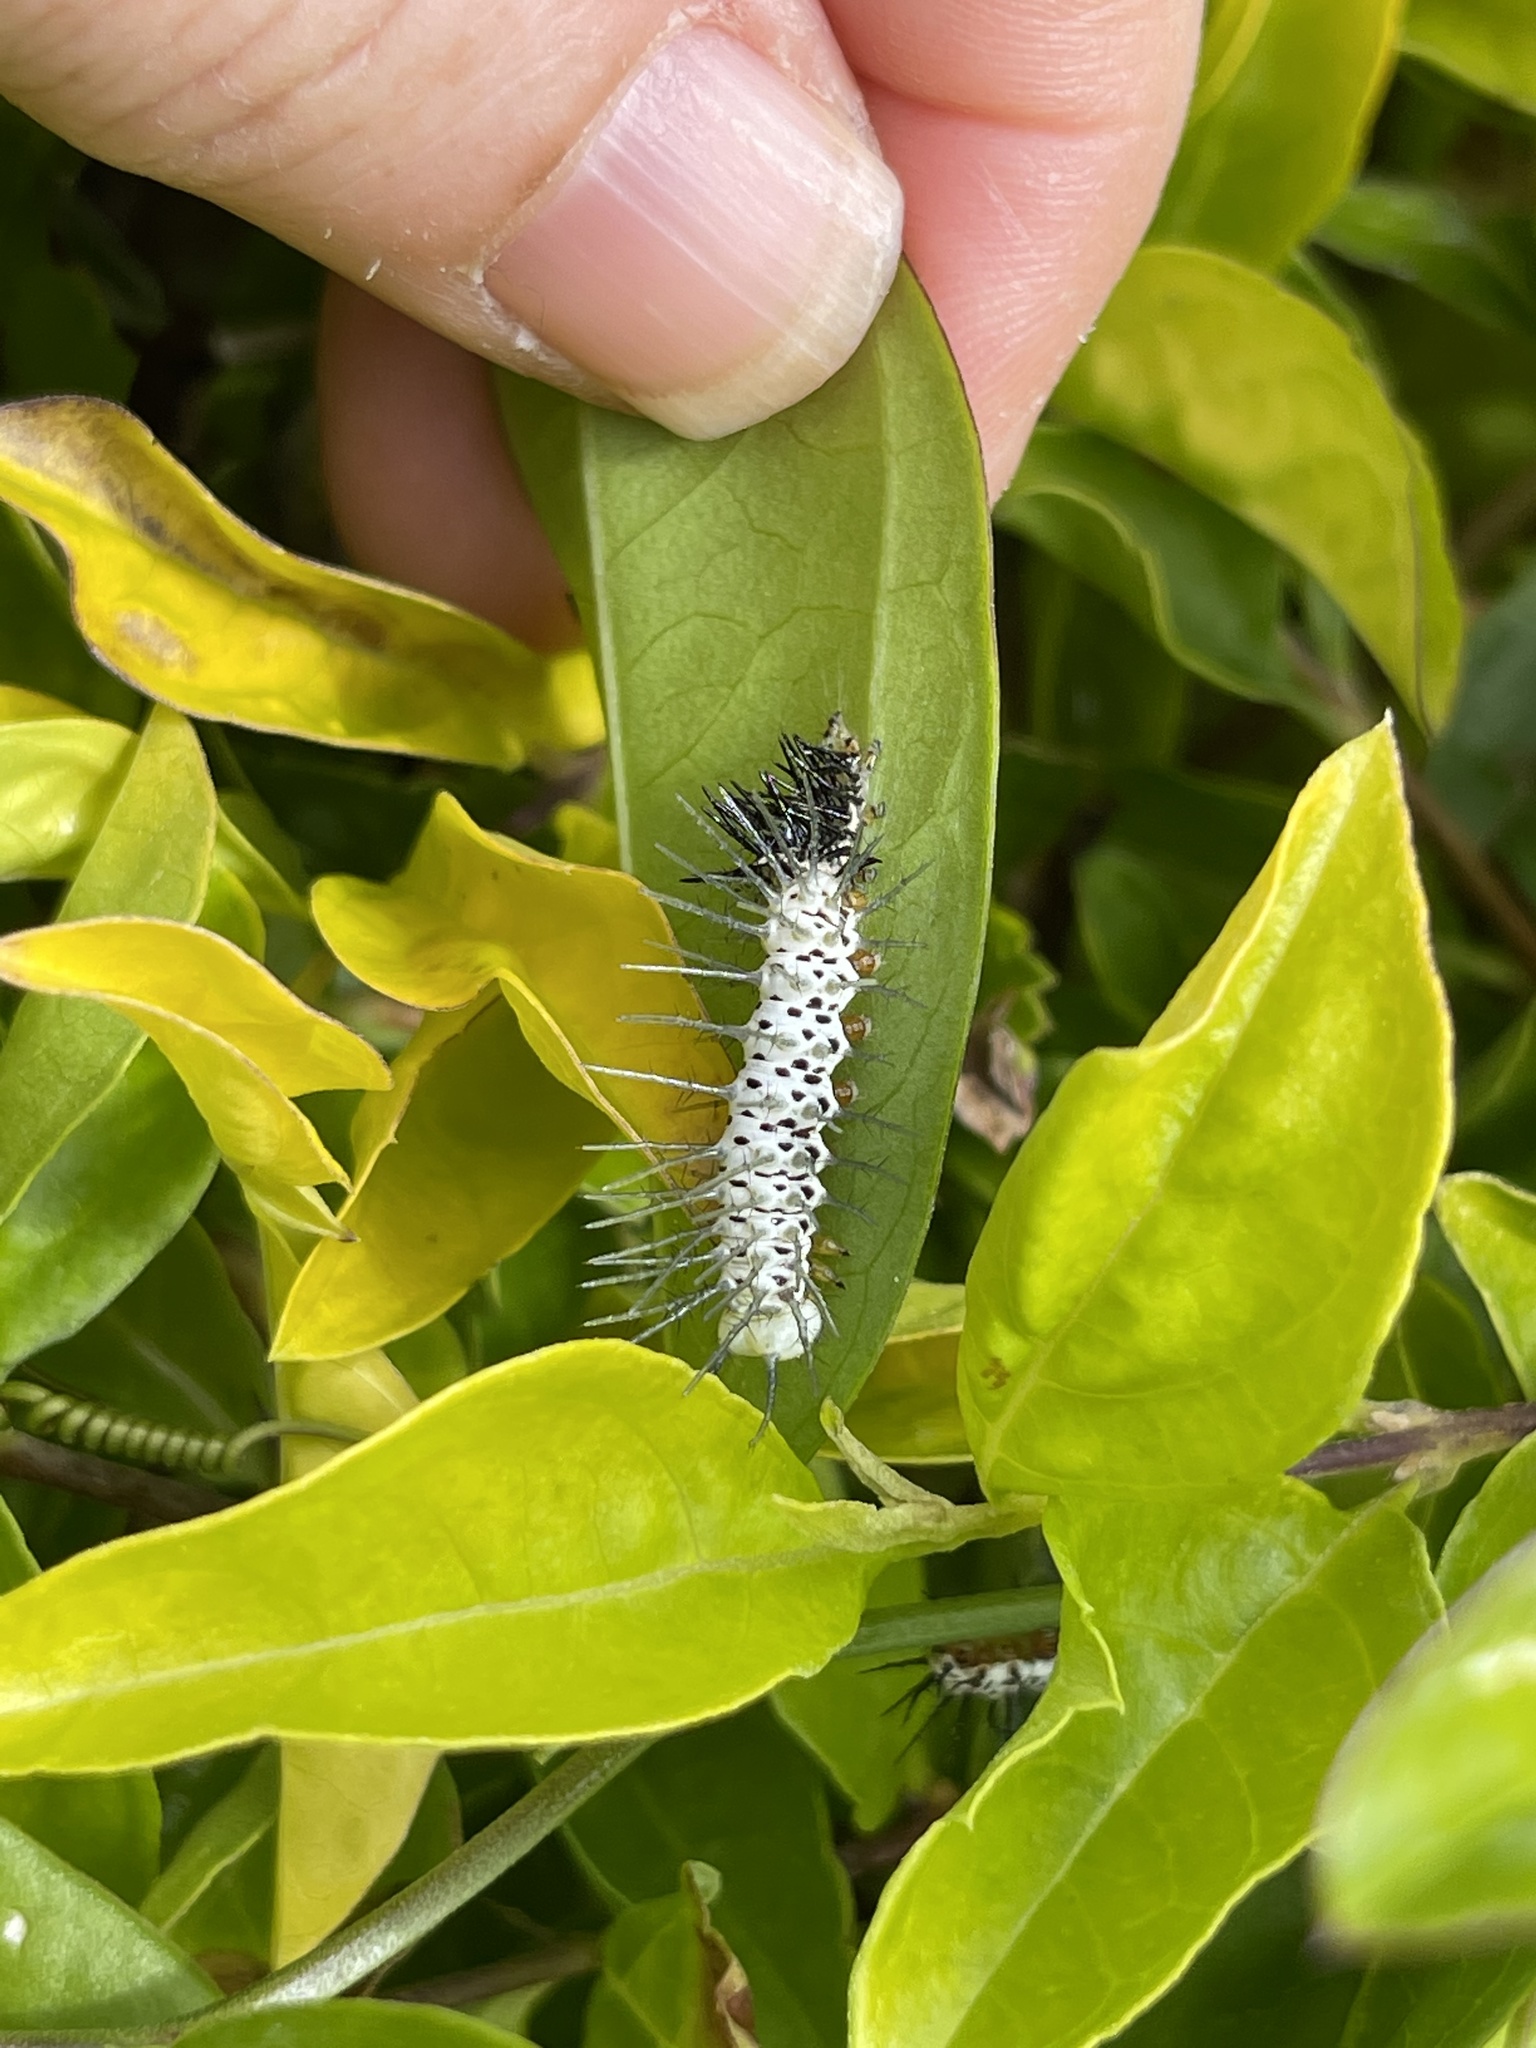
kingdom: Animalia
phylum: Arthropoda
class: Insecta
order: Lepidoptera
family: Nymphalidae
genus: Heliconius
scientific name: Heliconius charithonia
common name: Zebra long wing
